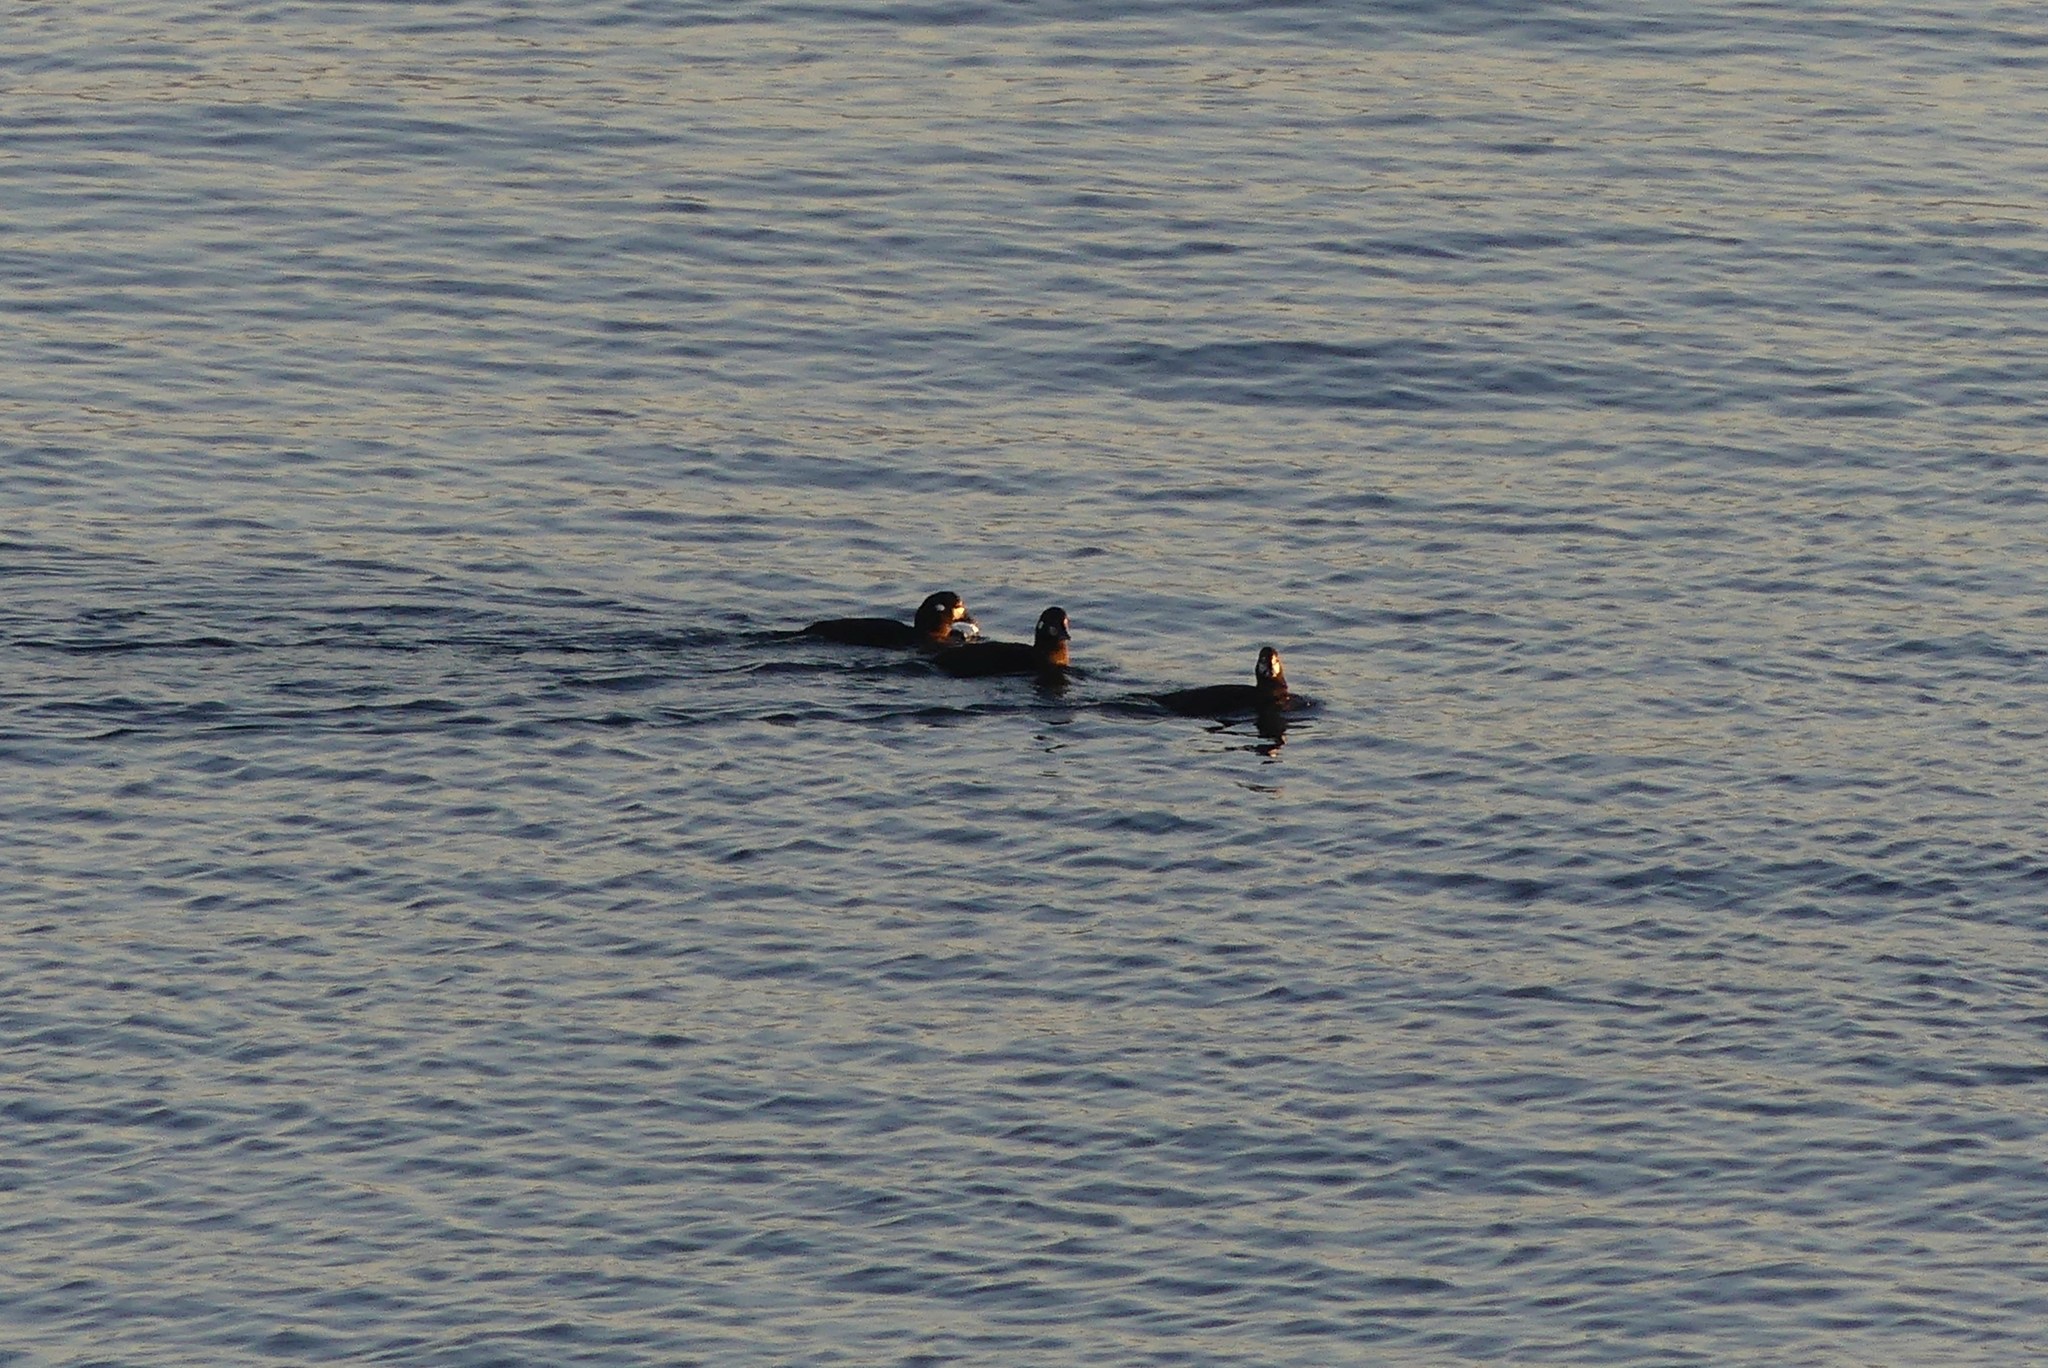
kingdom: Animalia
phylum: Chordata
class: Aves
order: Anseriformes
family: Anatidae
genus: Histrionicus
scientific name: Histrionicus histrionicus
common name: Harlequin duck
